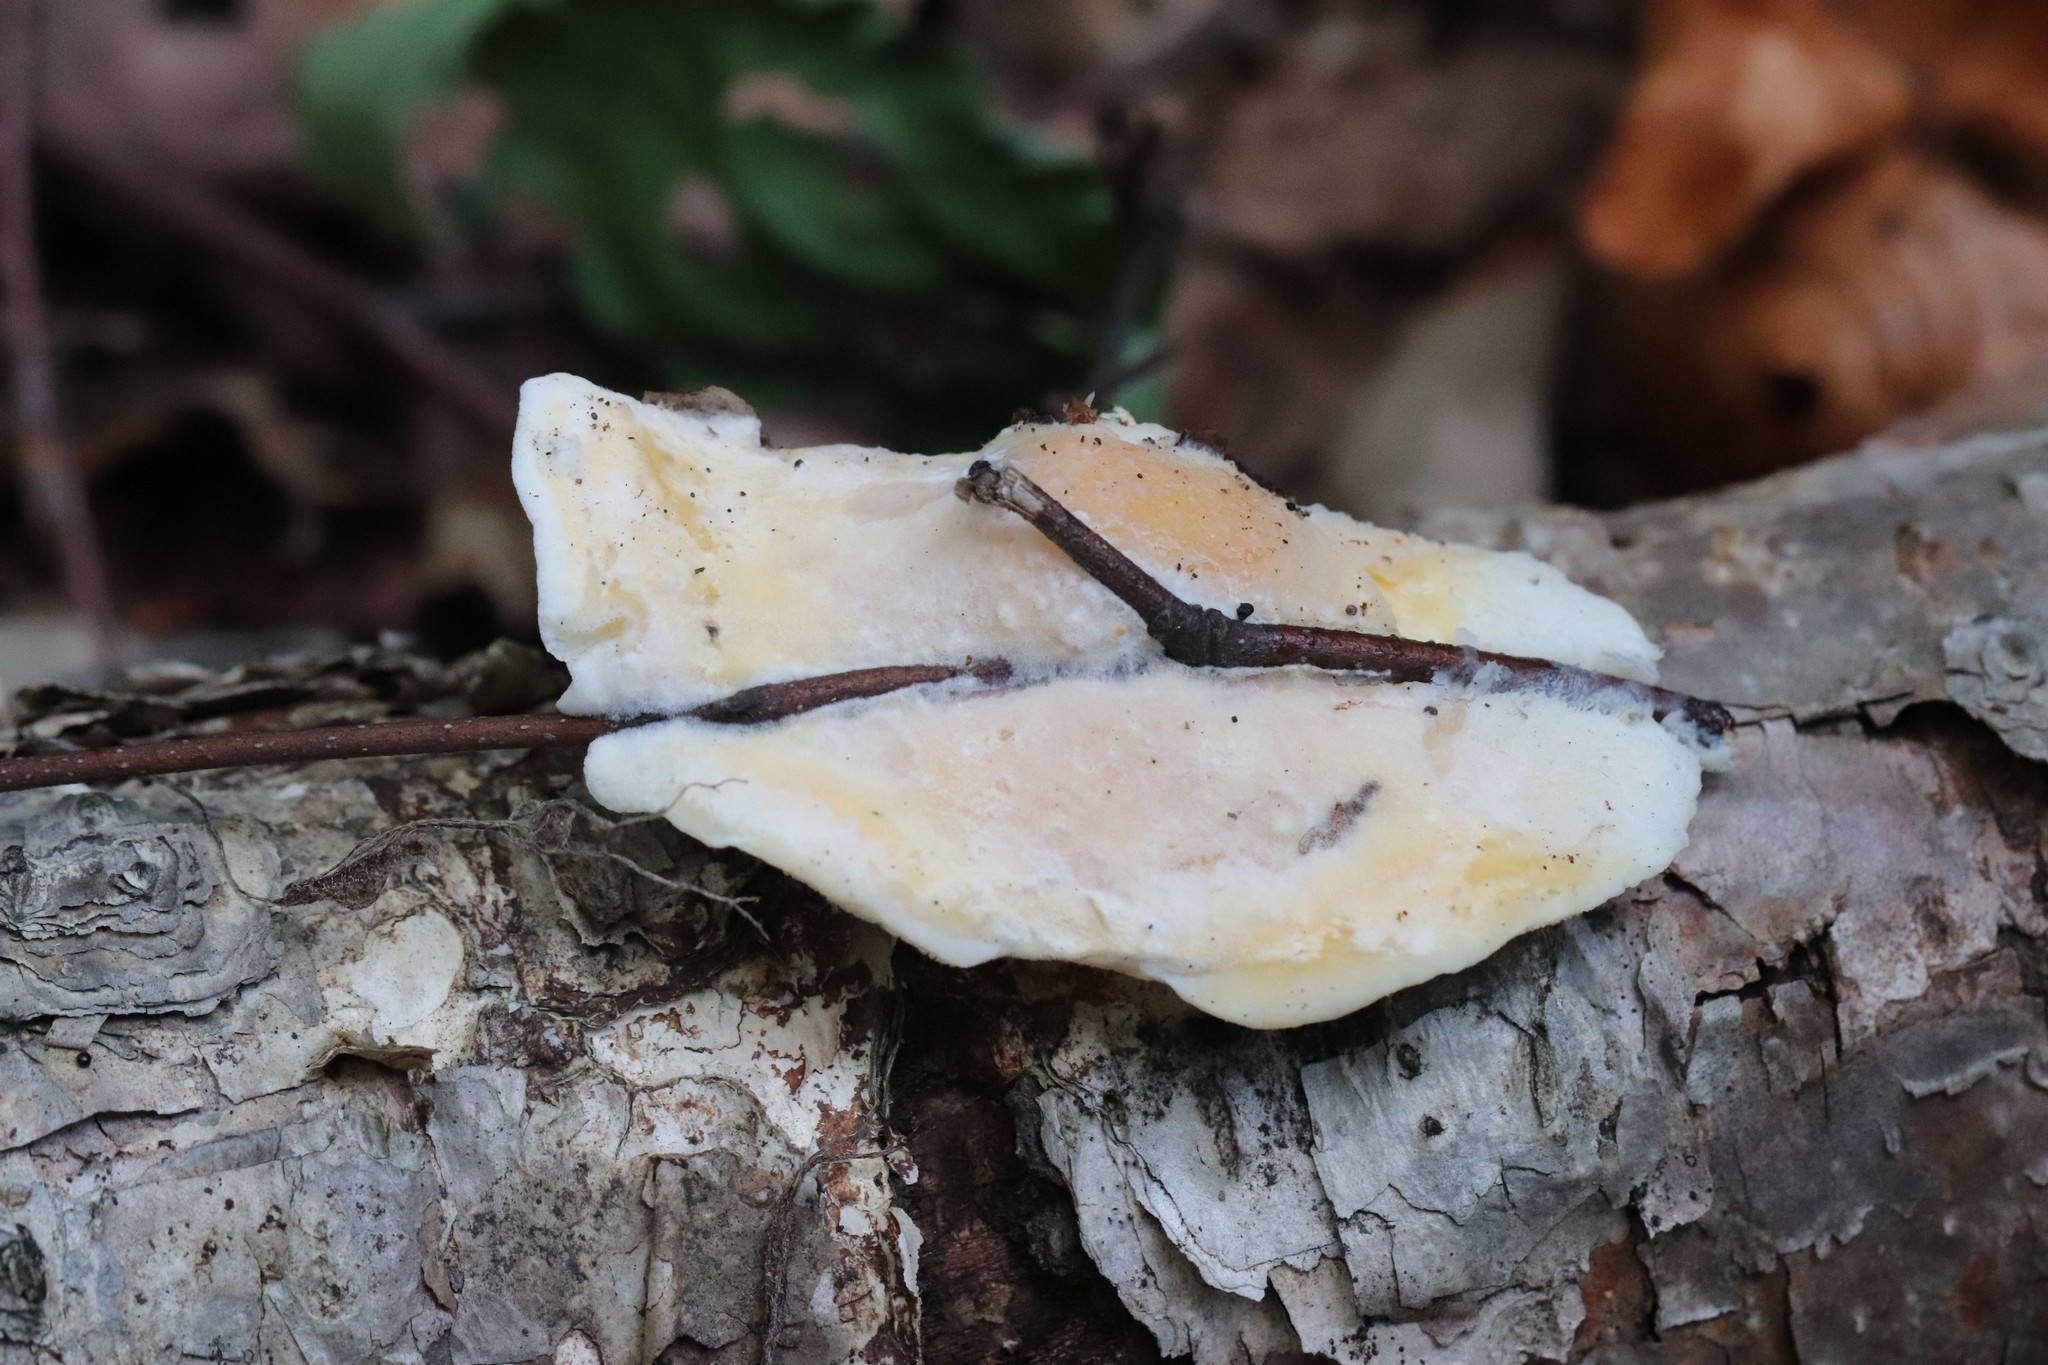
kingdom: Fungi
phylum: Basidiomycota
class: Agaricomycetes
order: Polyporales
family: Incrustoporiaceae
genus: Tyromyces
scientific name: Tyromyces kmetii
